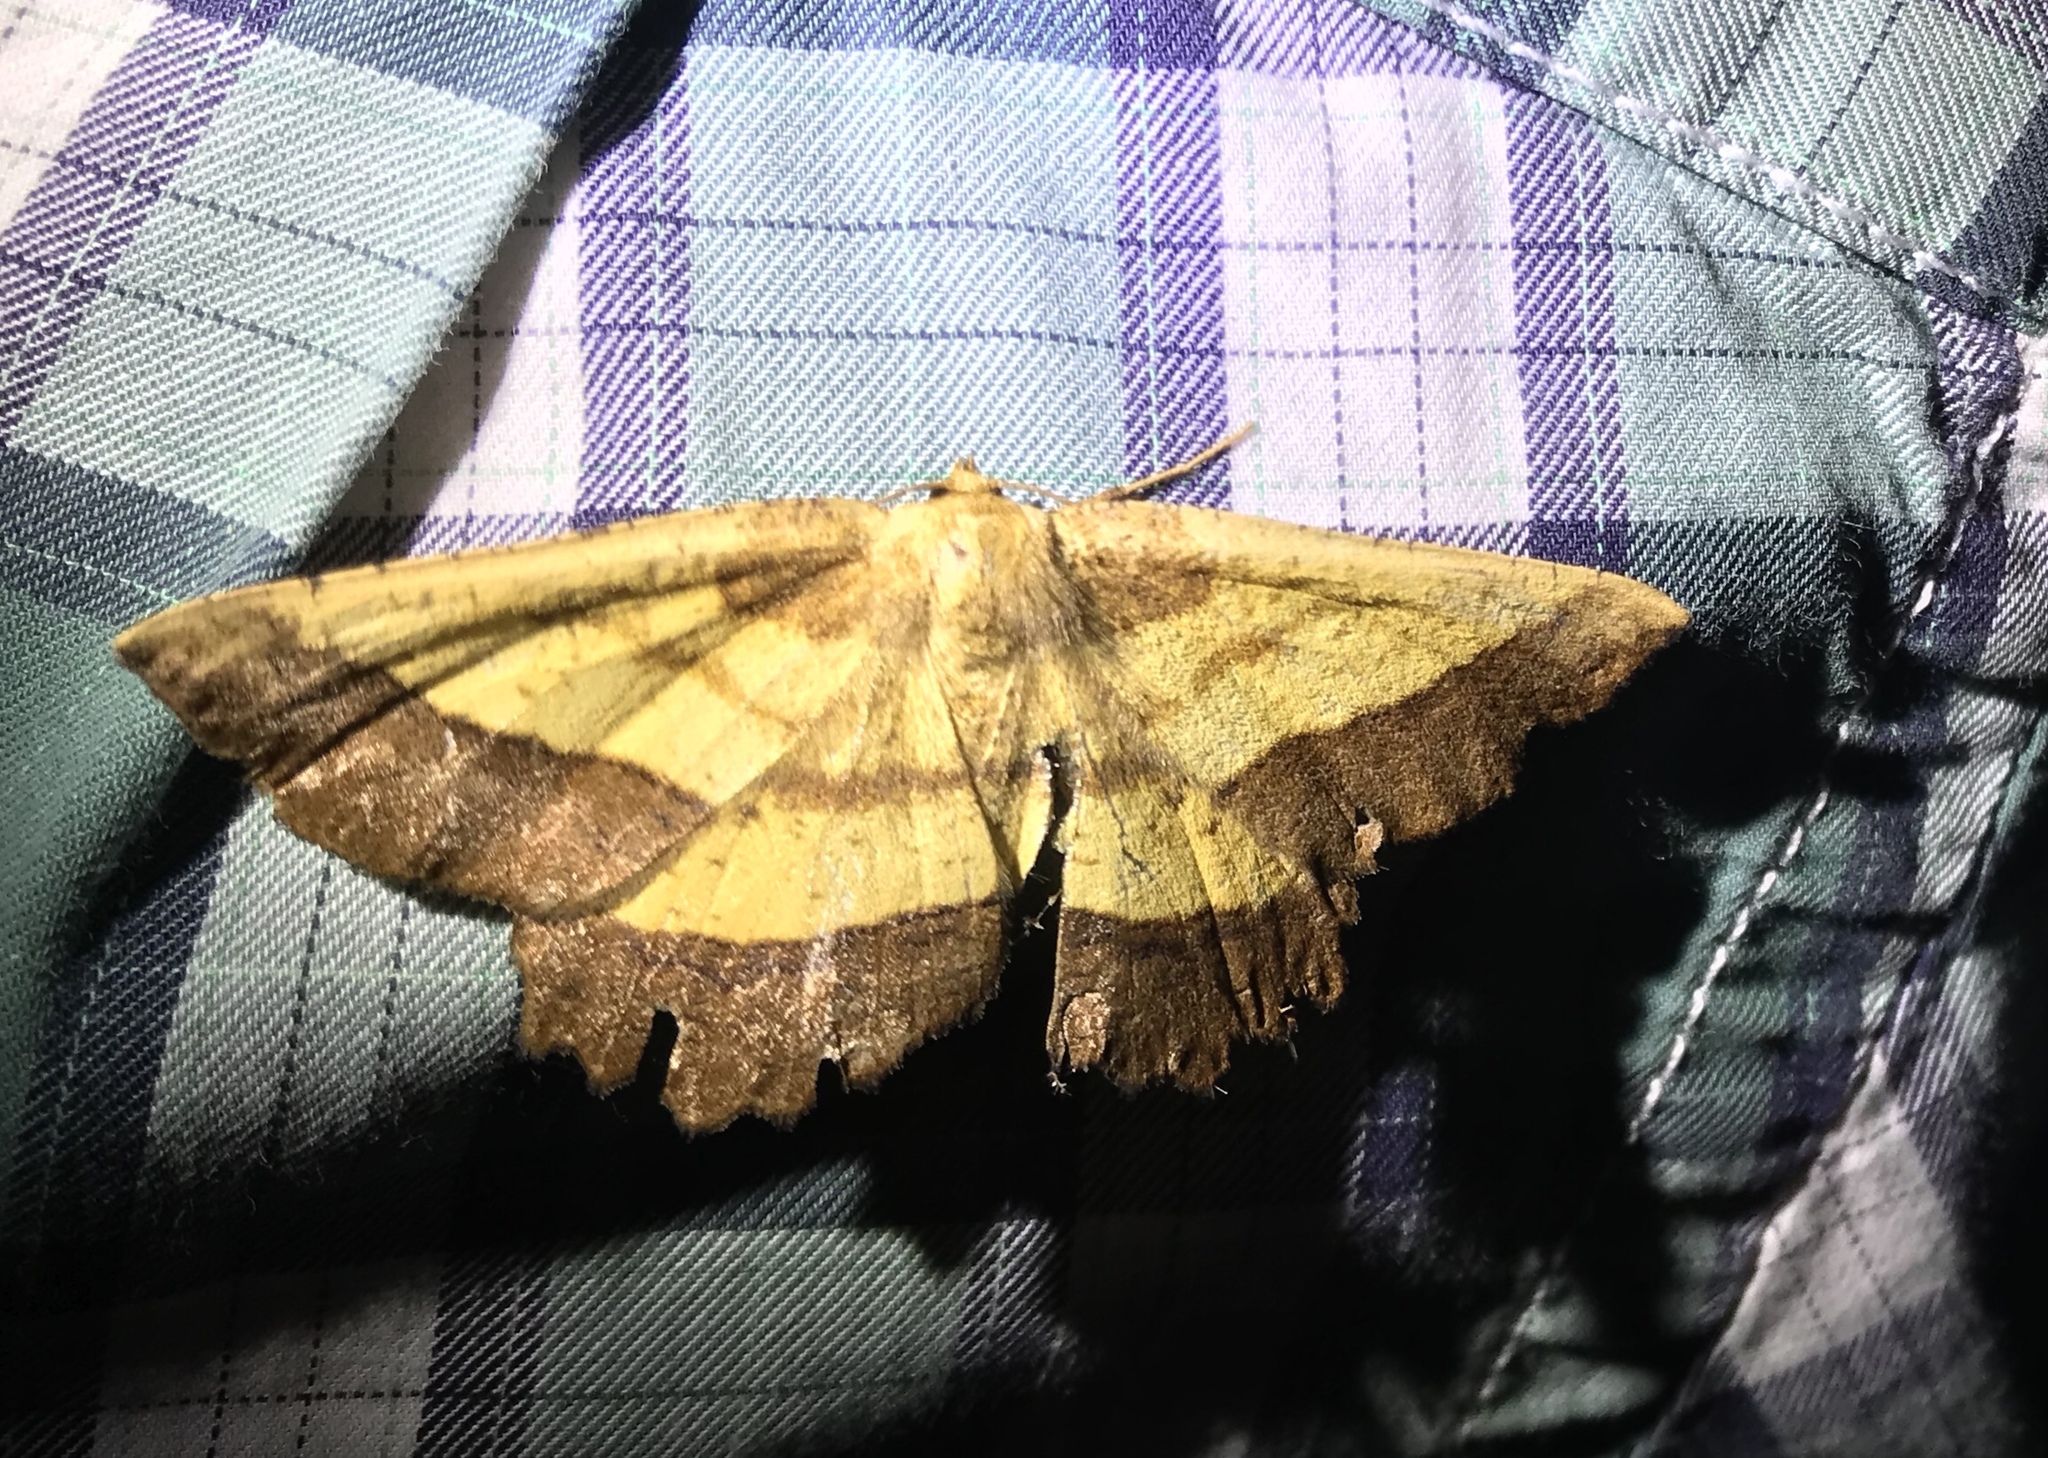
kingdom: Animalia
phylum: Arthropoda
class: Insecta
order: Lepidoptera
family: Geometridae
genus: Euchlaena
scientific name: Euchlaena serrata
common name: Saw wing
